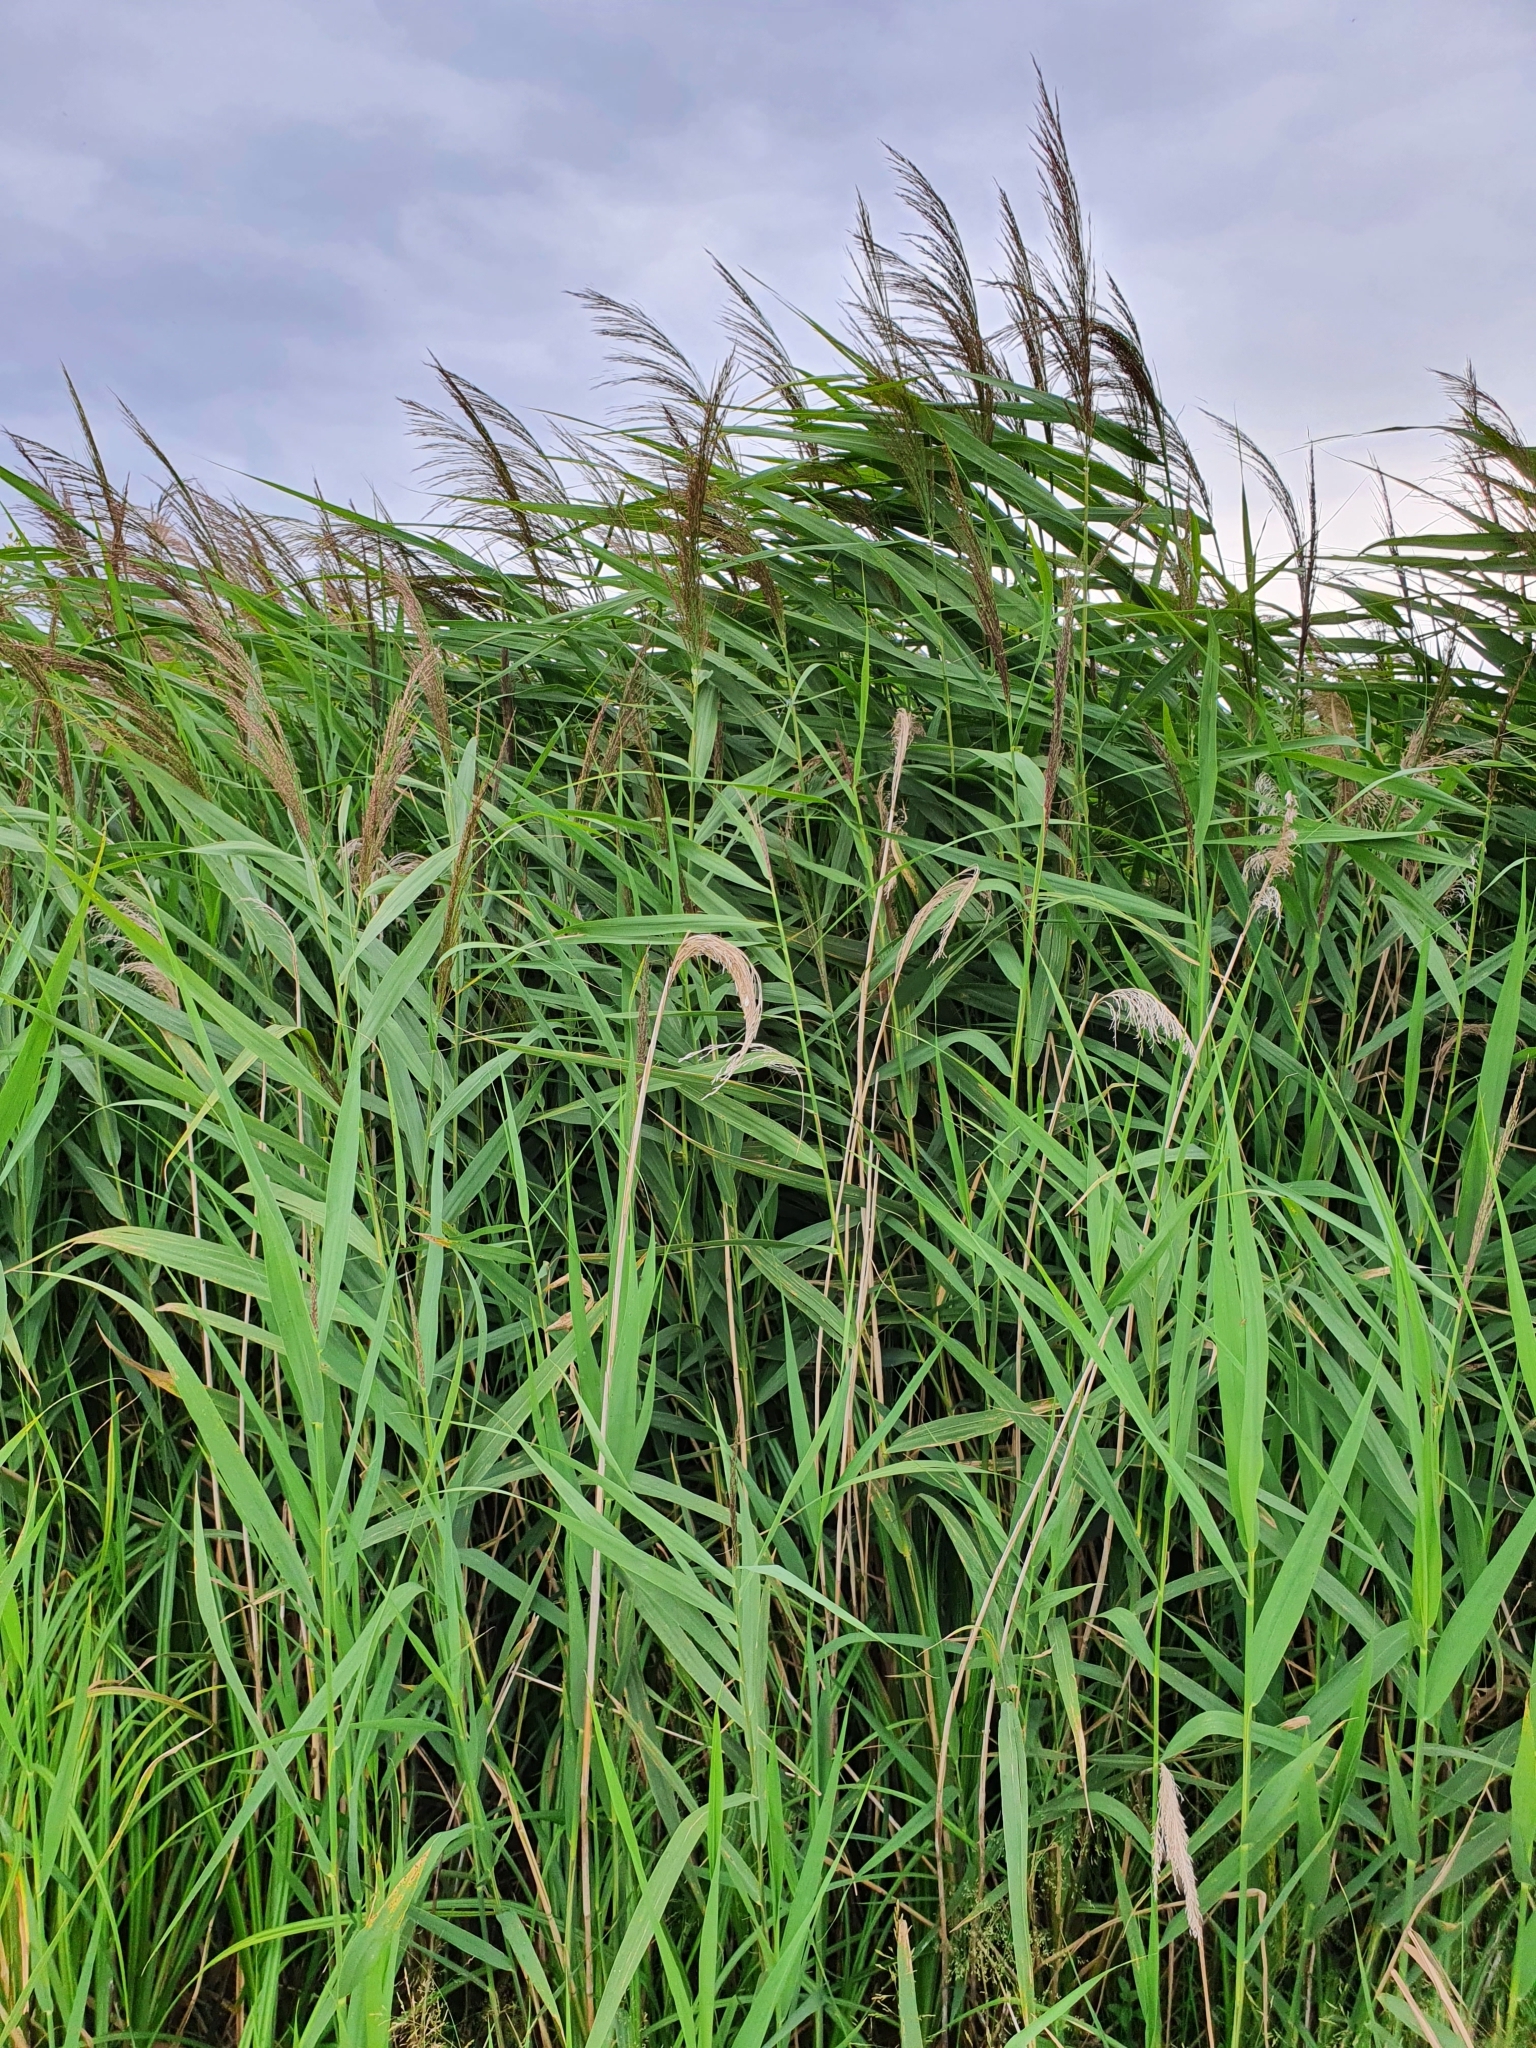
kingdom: Plantae
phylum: Tracheophyta
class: Liliopsida
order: Poales
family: Poaceae
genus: Phragmites
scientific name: Phragmites australis
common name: Common reed
